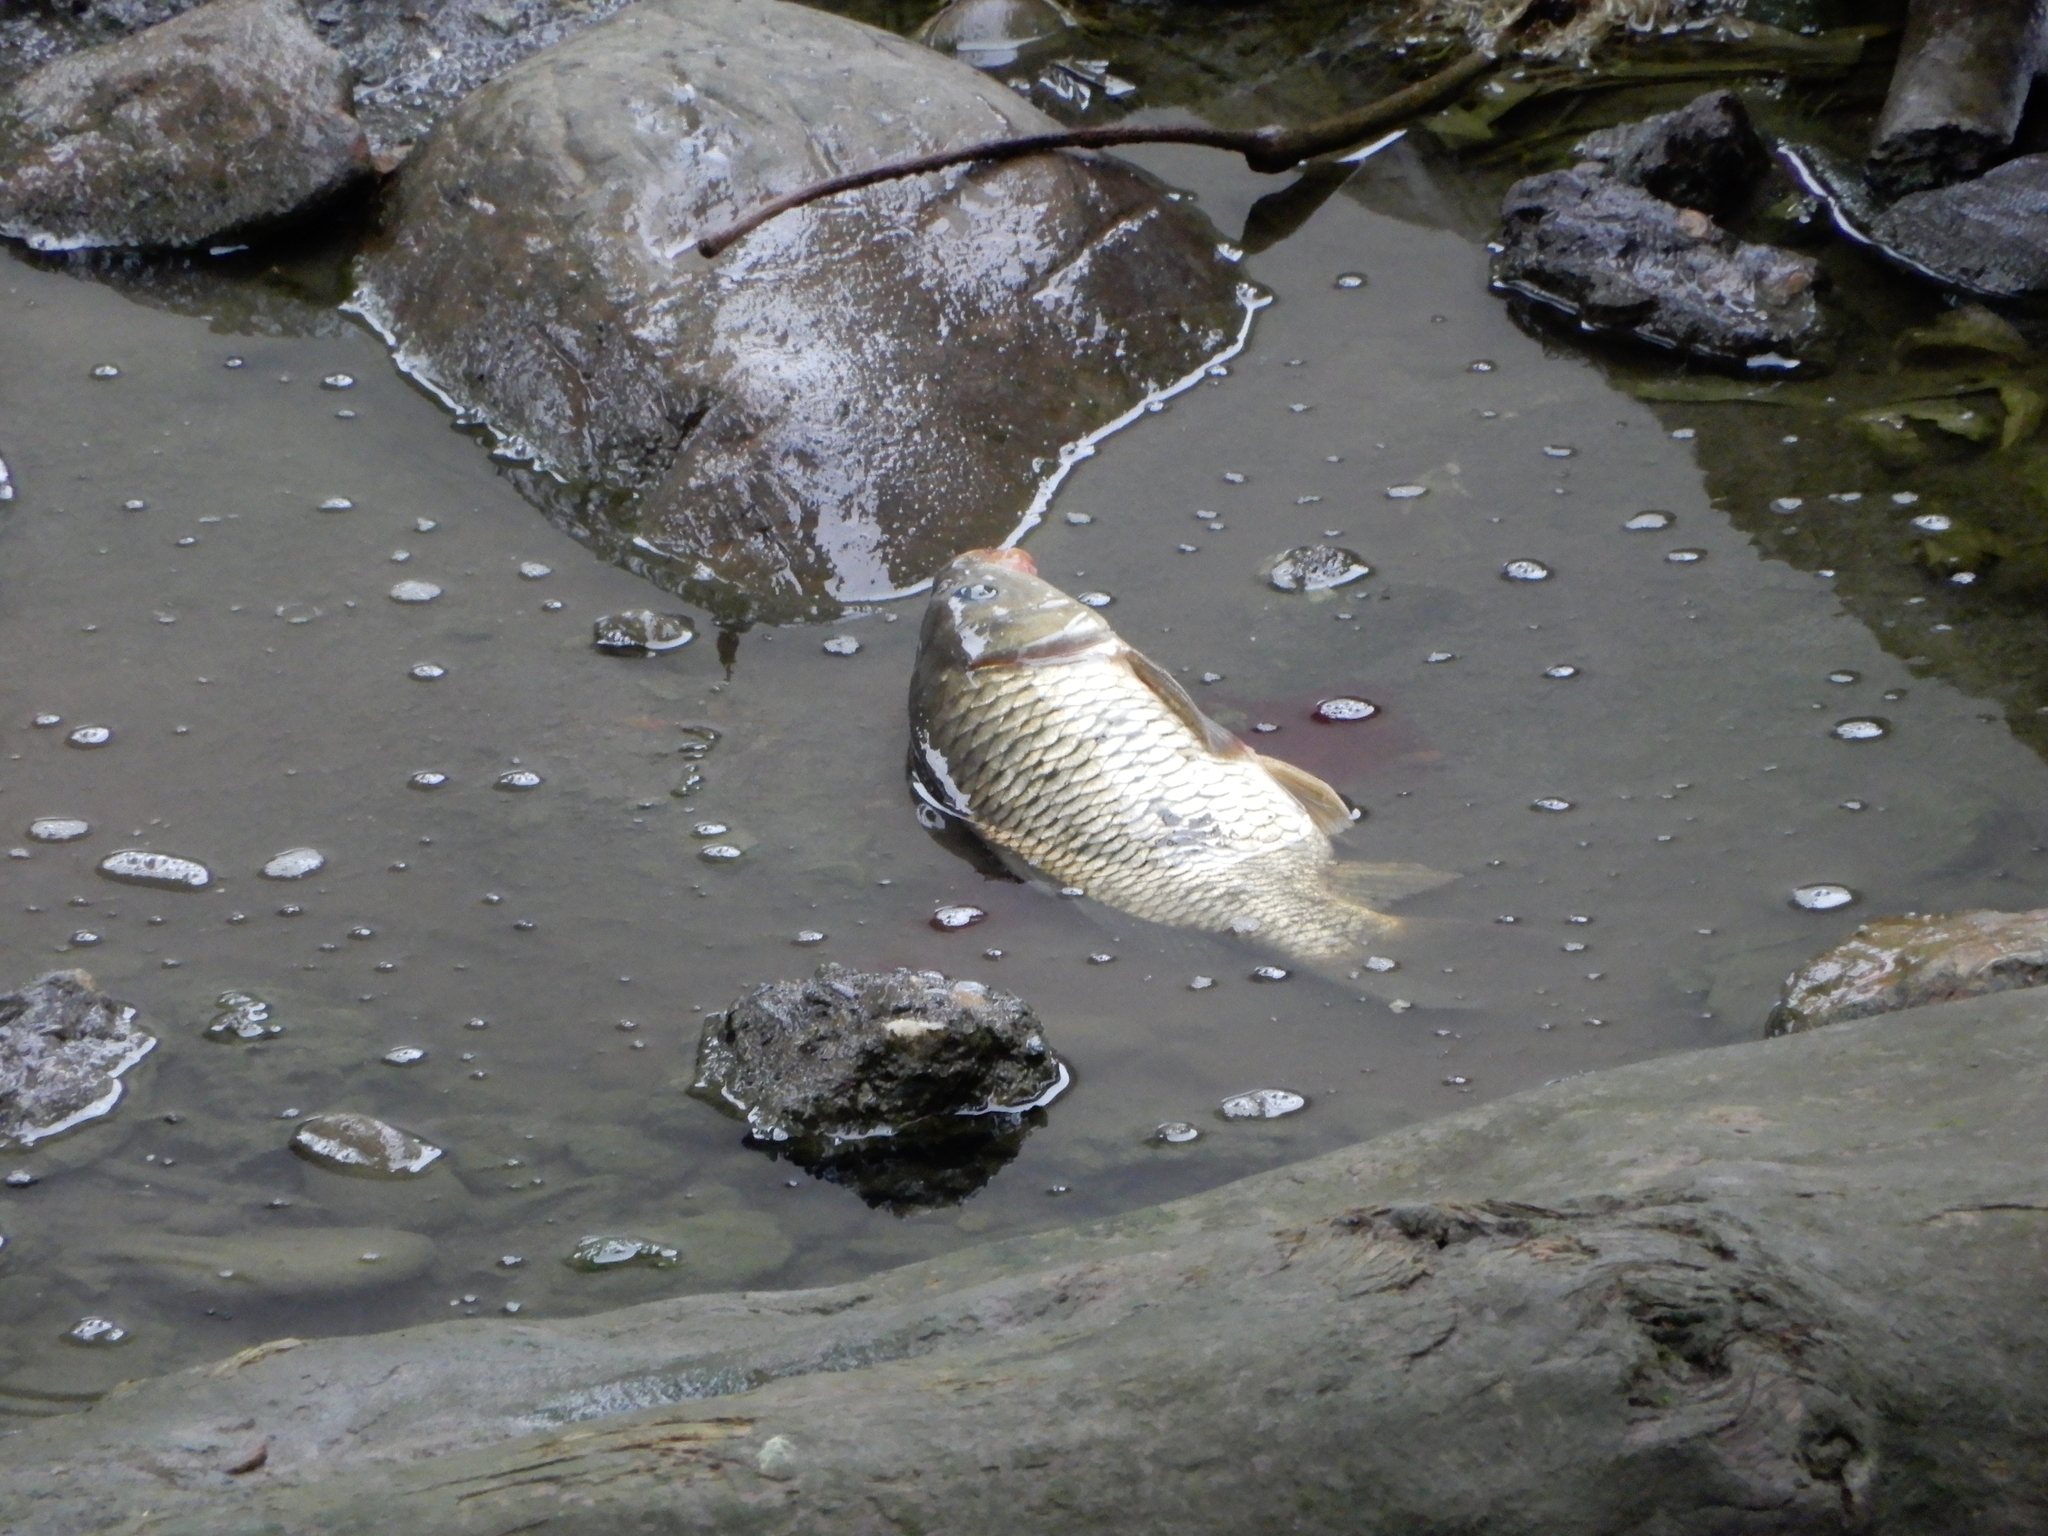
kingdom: Animalia
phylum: Chordata
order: Cypriniformes
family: Cyprinidae
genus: Cyprinus
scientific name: Cyprinus carpio
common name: Common carp
